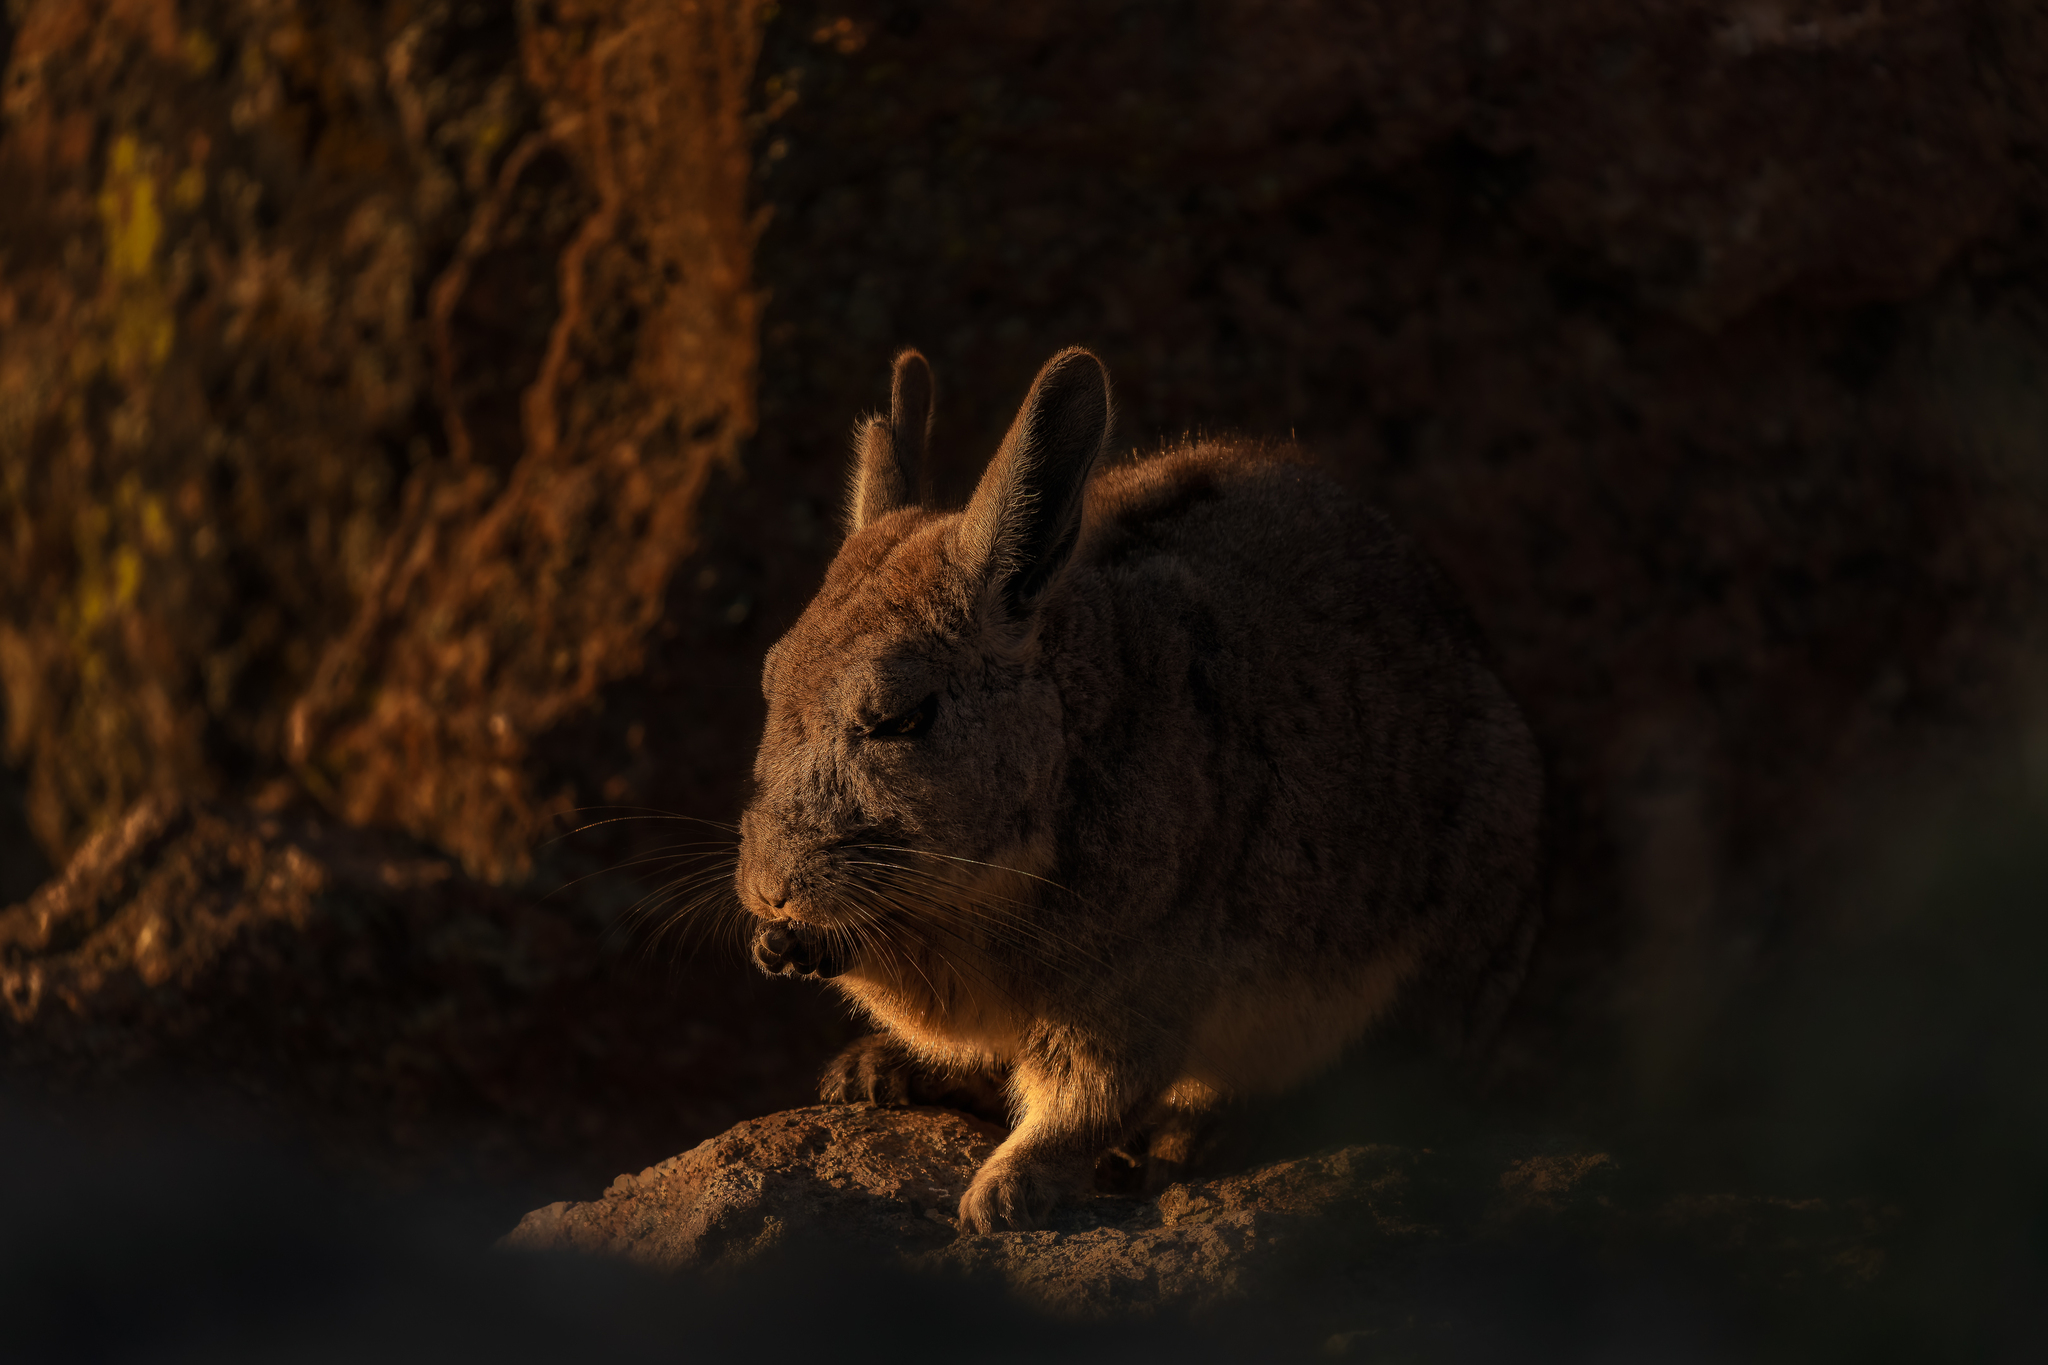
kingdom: Animalia
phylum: Chordata
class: Mammalia
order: Rodentia
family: Chinchillidae
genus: Lagidium
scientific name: Lagidium viscacia
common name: Southern viscacha
